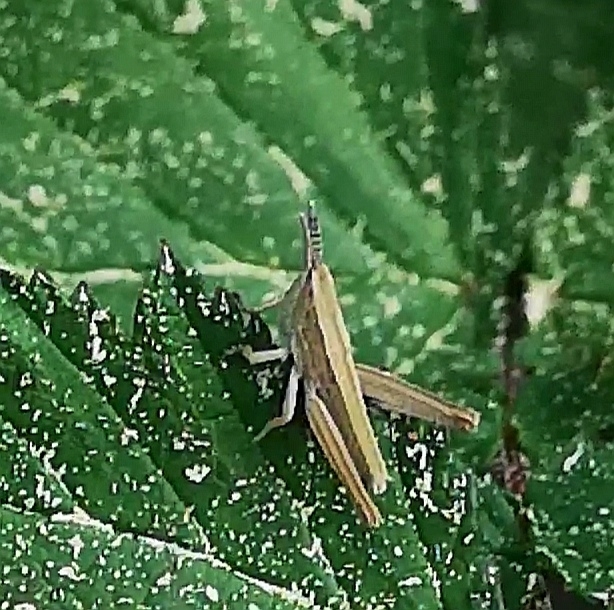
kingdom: Animalia
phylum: Arthropoda
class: Insecta
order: Orthoptera
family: Acrididae
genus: Euthystira
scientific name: Euthystira brachyptera
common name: Small gold grasshopper
